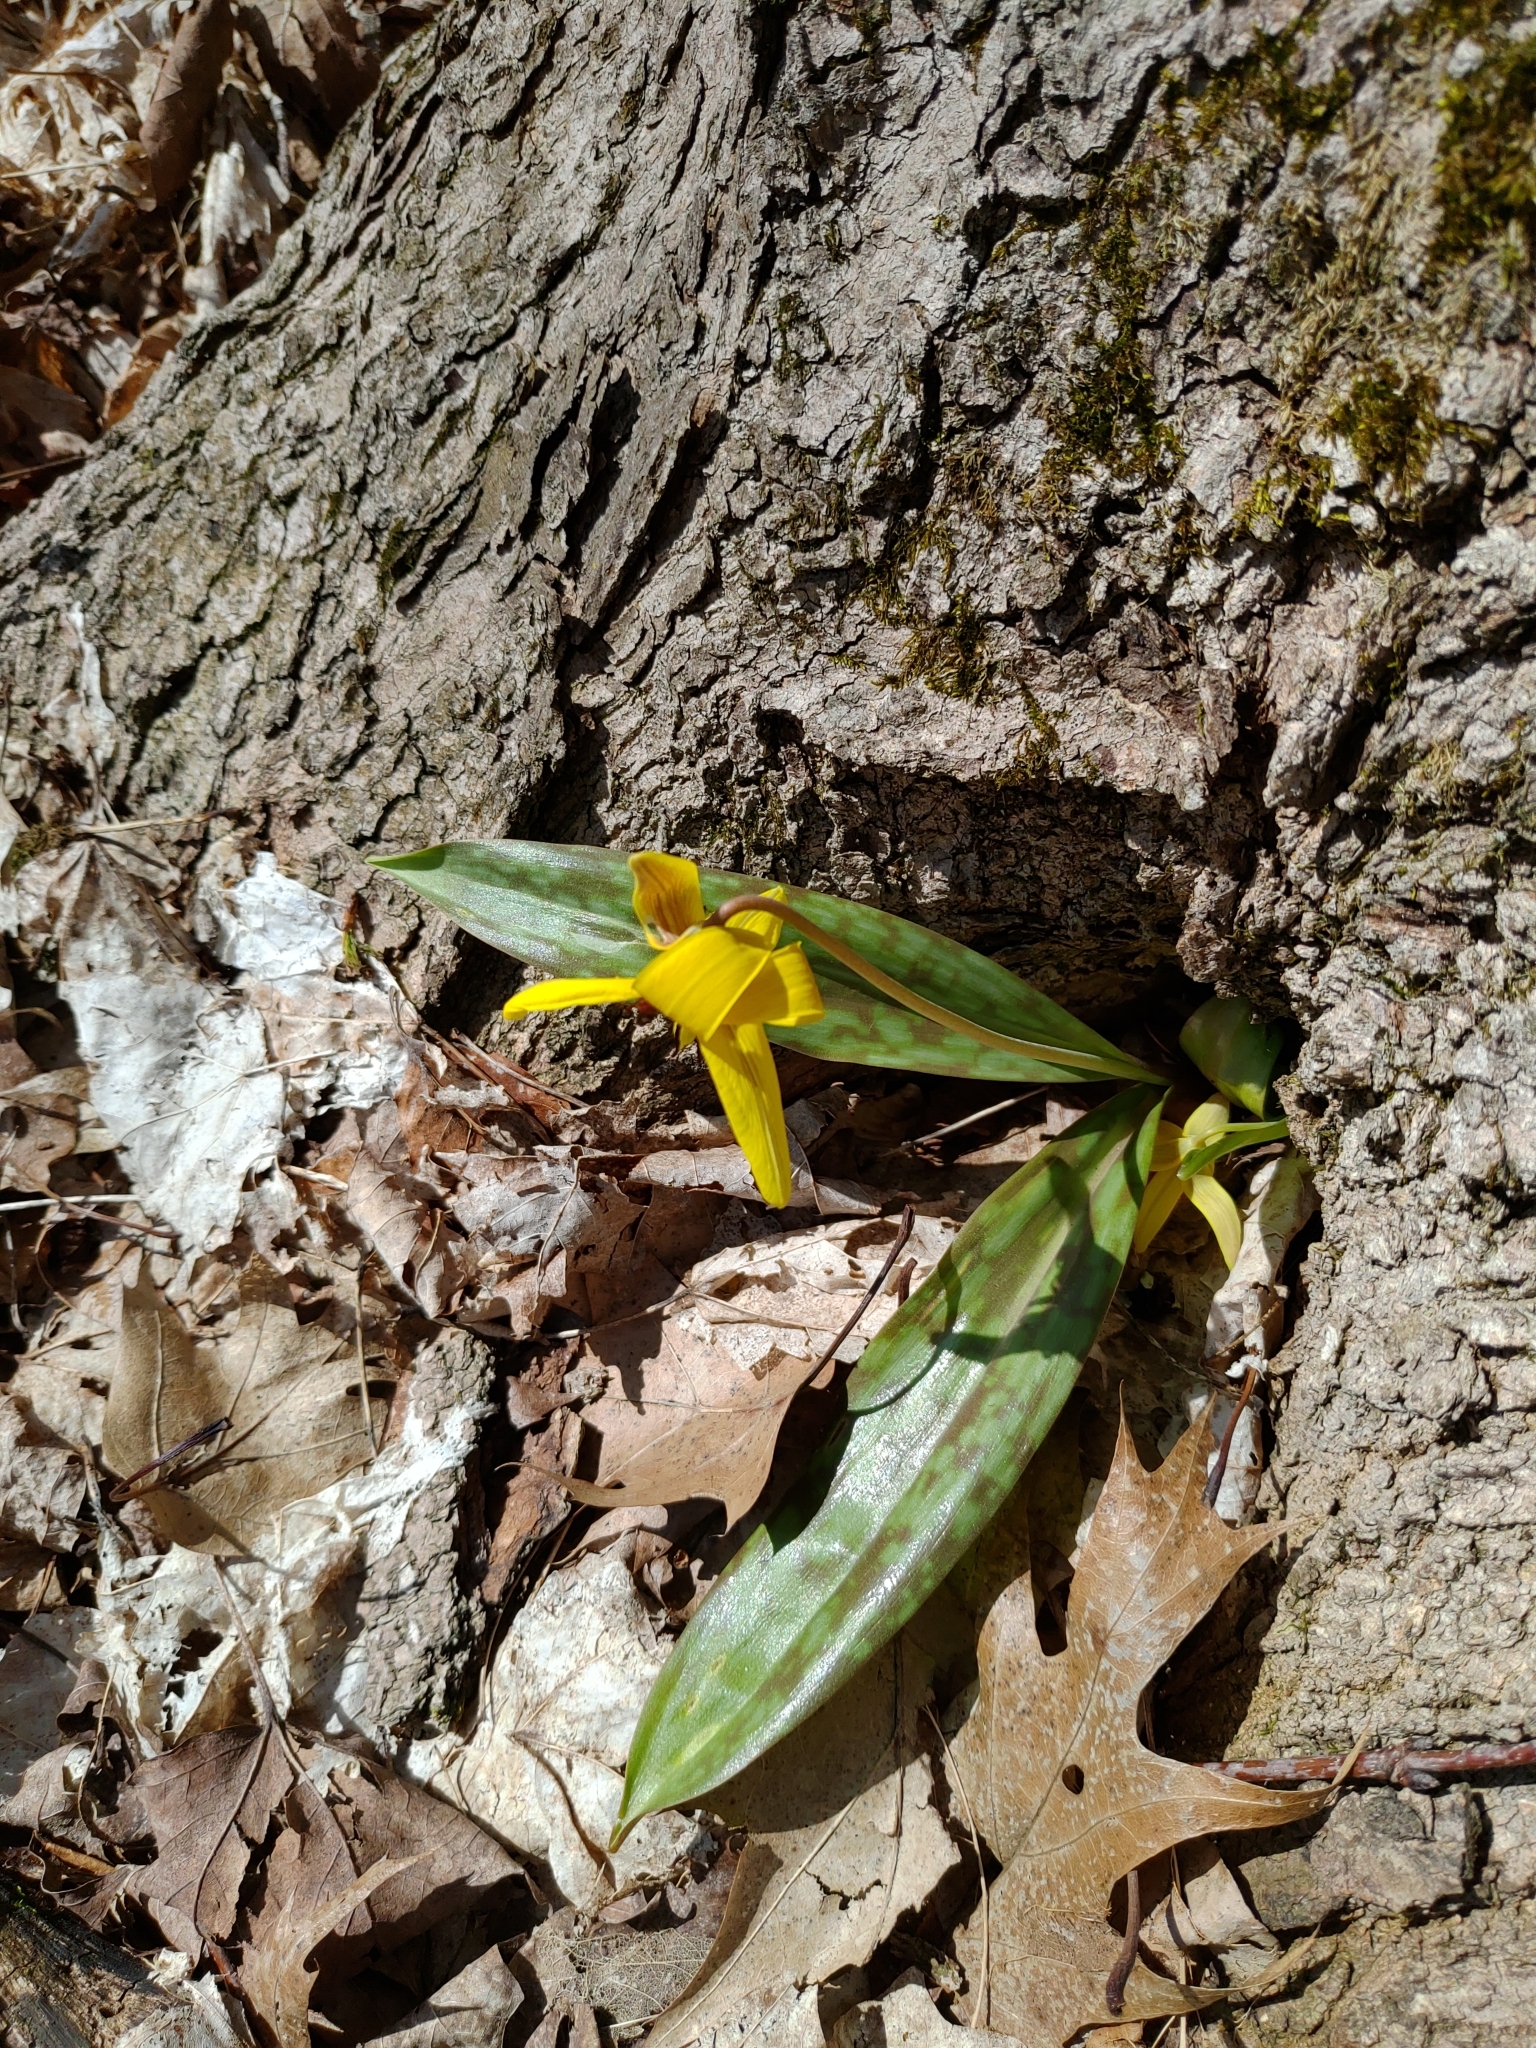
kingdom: Plantae
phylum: Tracheophyta
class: Liliopsida
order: Liliales
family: Liliaceae
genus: Erythronium
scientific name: Erythronium americanum
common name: Yellow adder's-tongue
